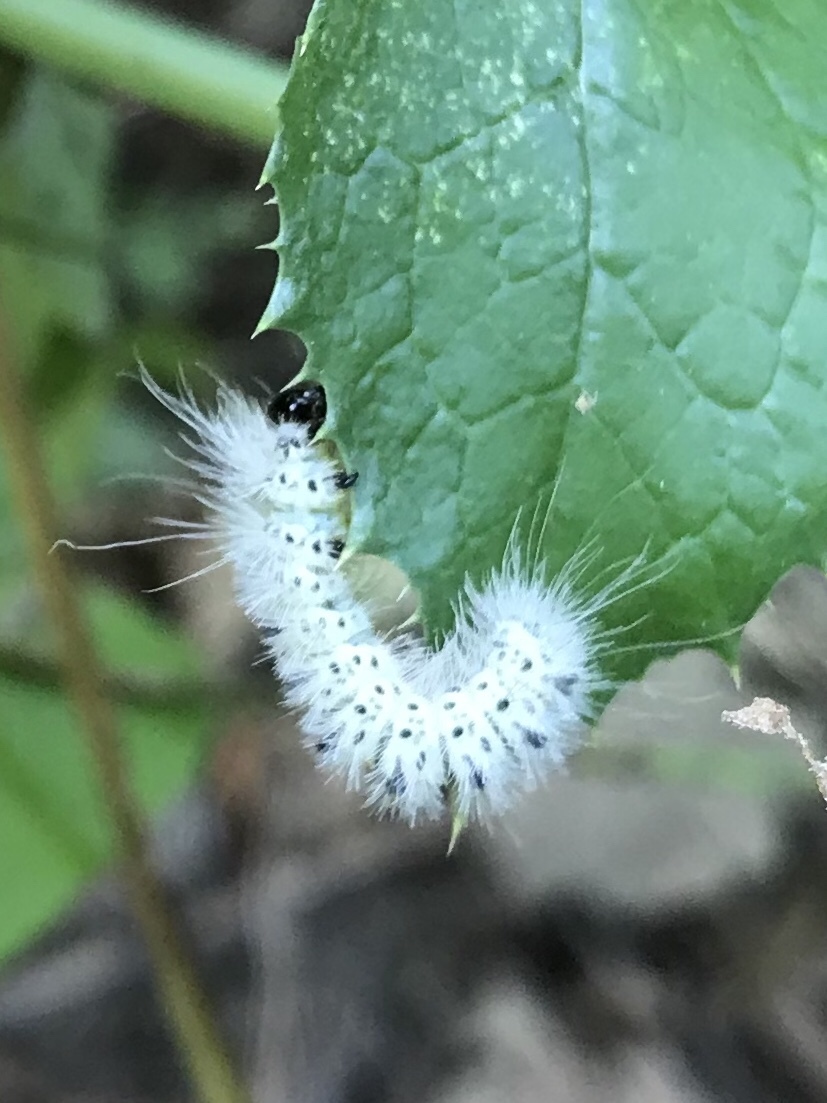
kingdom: Animalia
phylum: Arthropoda
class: Insecta
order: Lepidoptera
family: Erebidae
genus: Lophocampa
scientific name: Lophocampa caryae
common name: Hickory tussock moth
